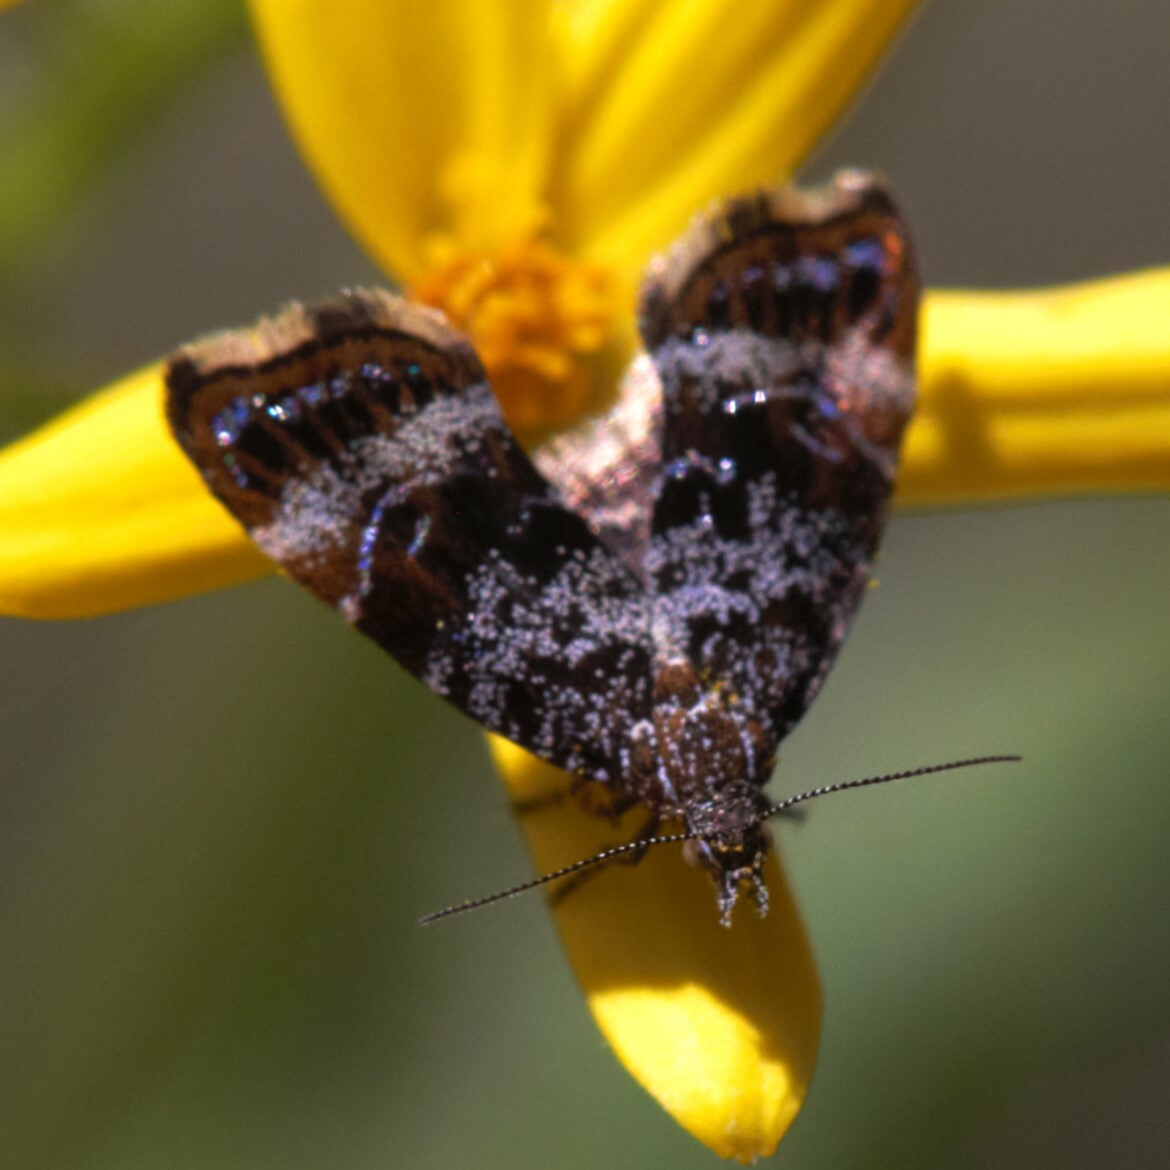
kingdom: Animalia
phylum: Arthropoda
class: Insecta
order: Lepidoptera
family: Choreutidae
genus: Asterivora
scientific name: Asterivora homotypa
